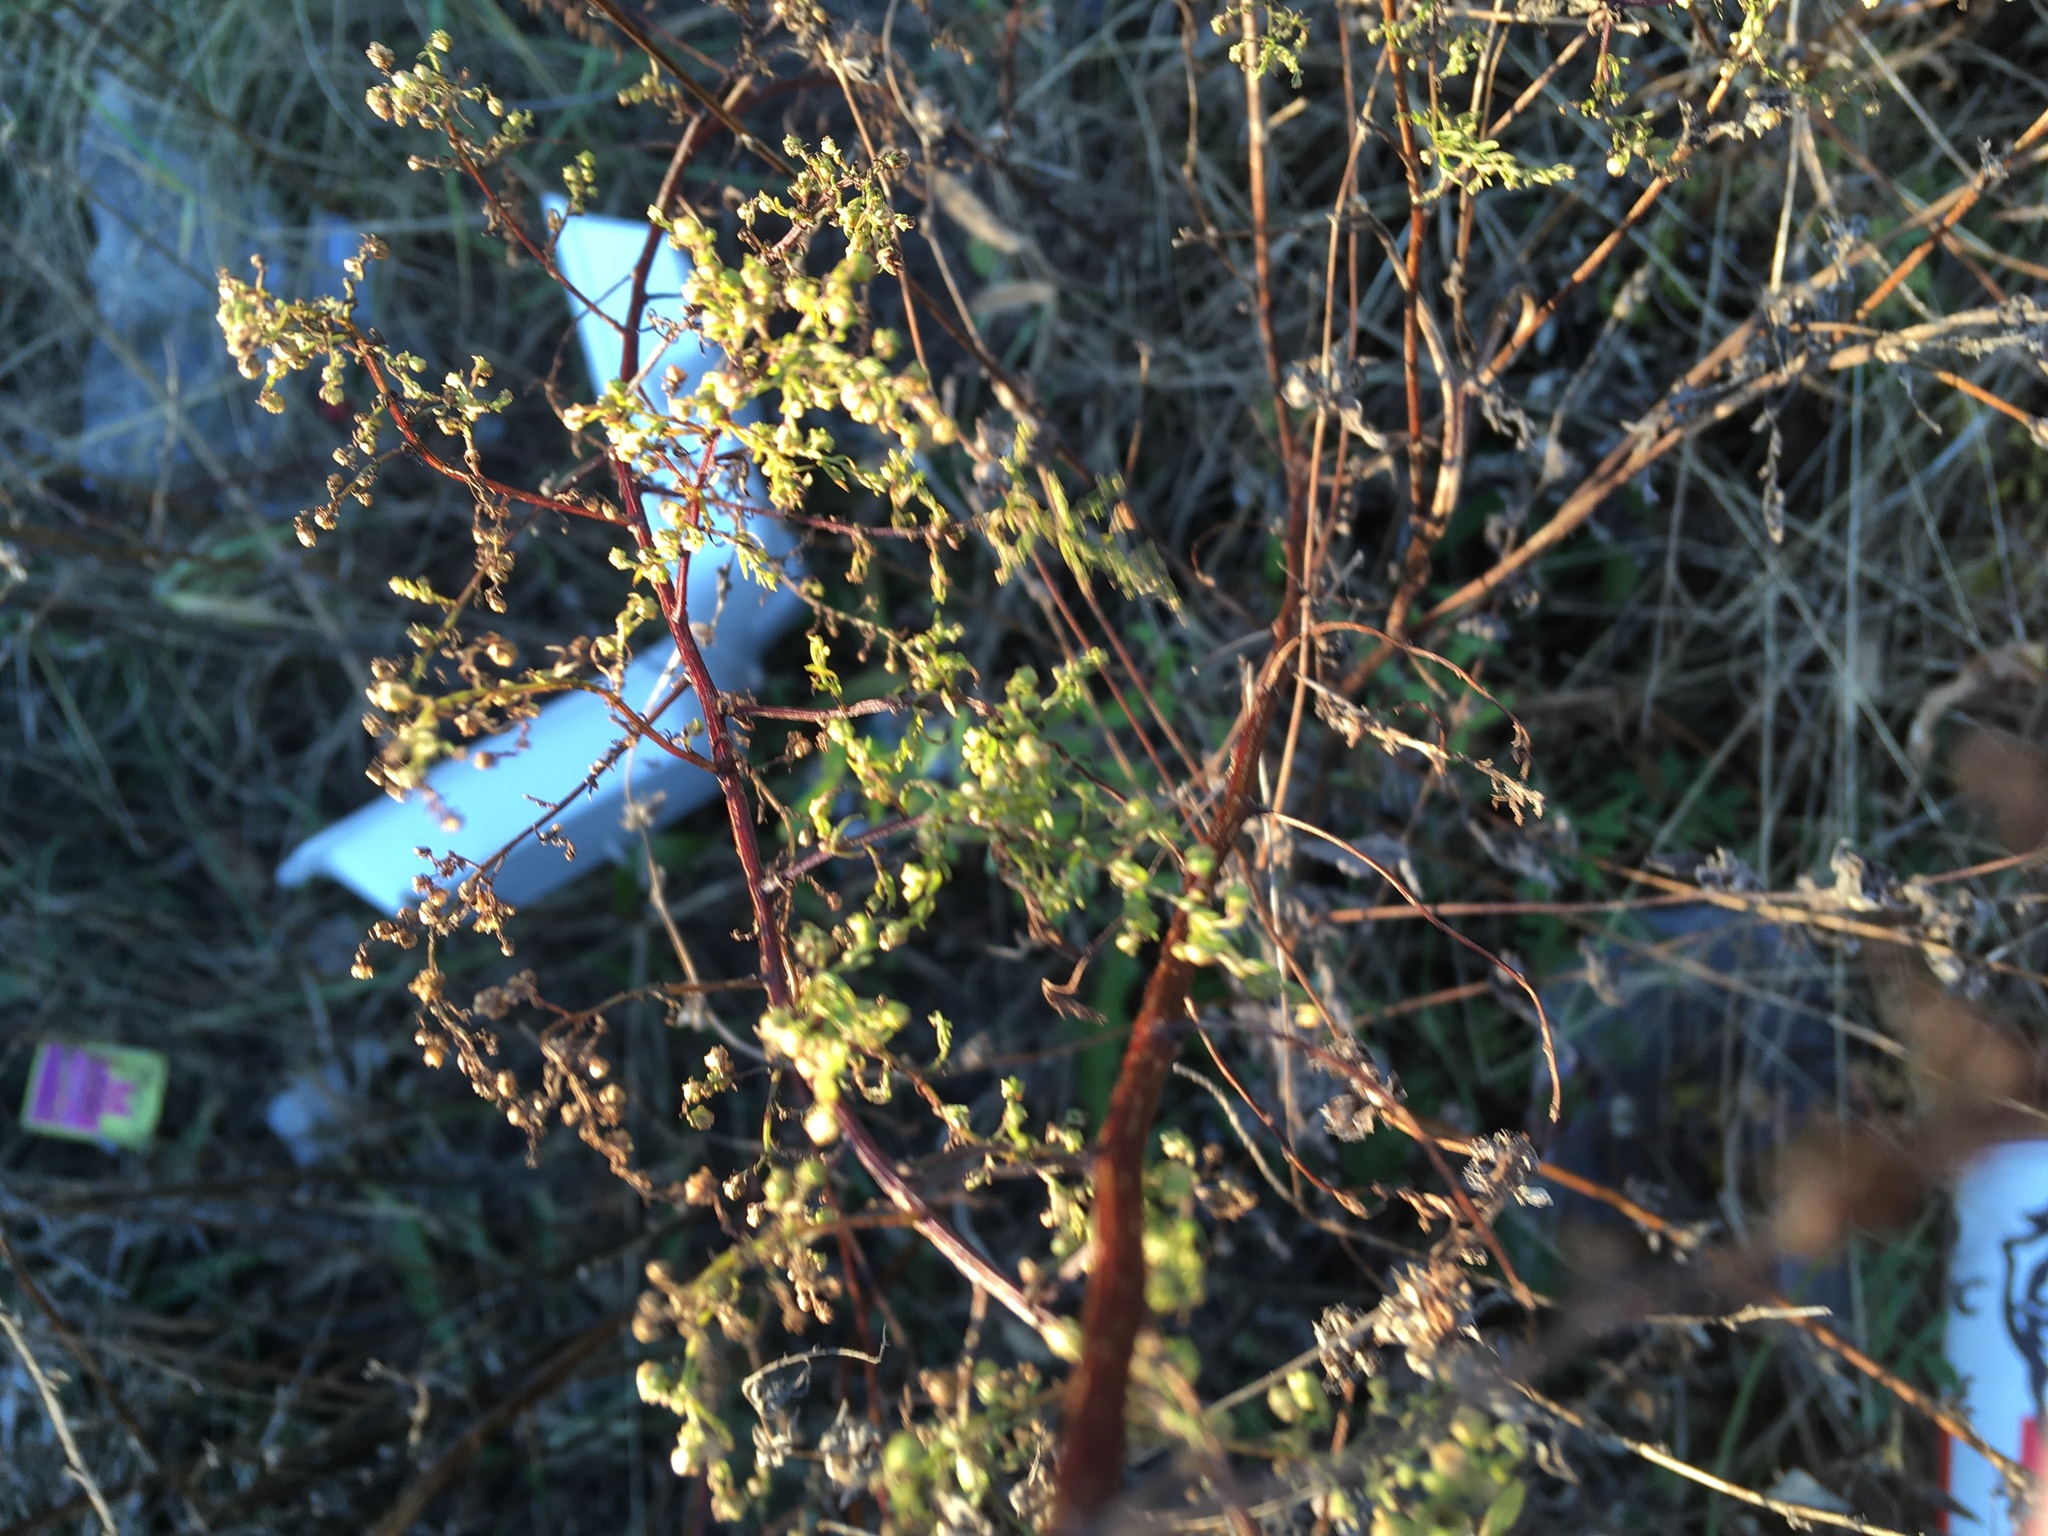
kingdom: Plantae
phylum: Tracheophyta
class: Magnoliopsida
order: Asterales
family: Asteraceae
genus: Artemisia
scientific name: Artemisia annua
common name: Sweet sagewort
